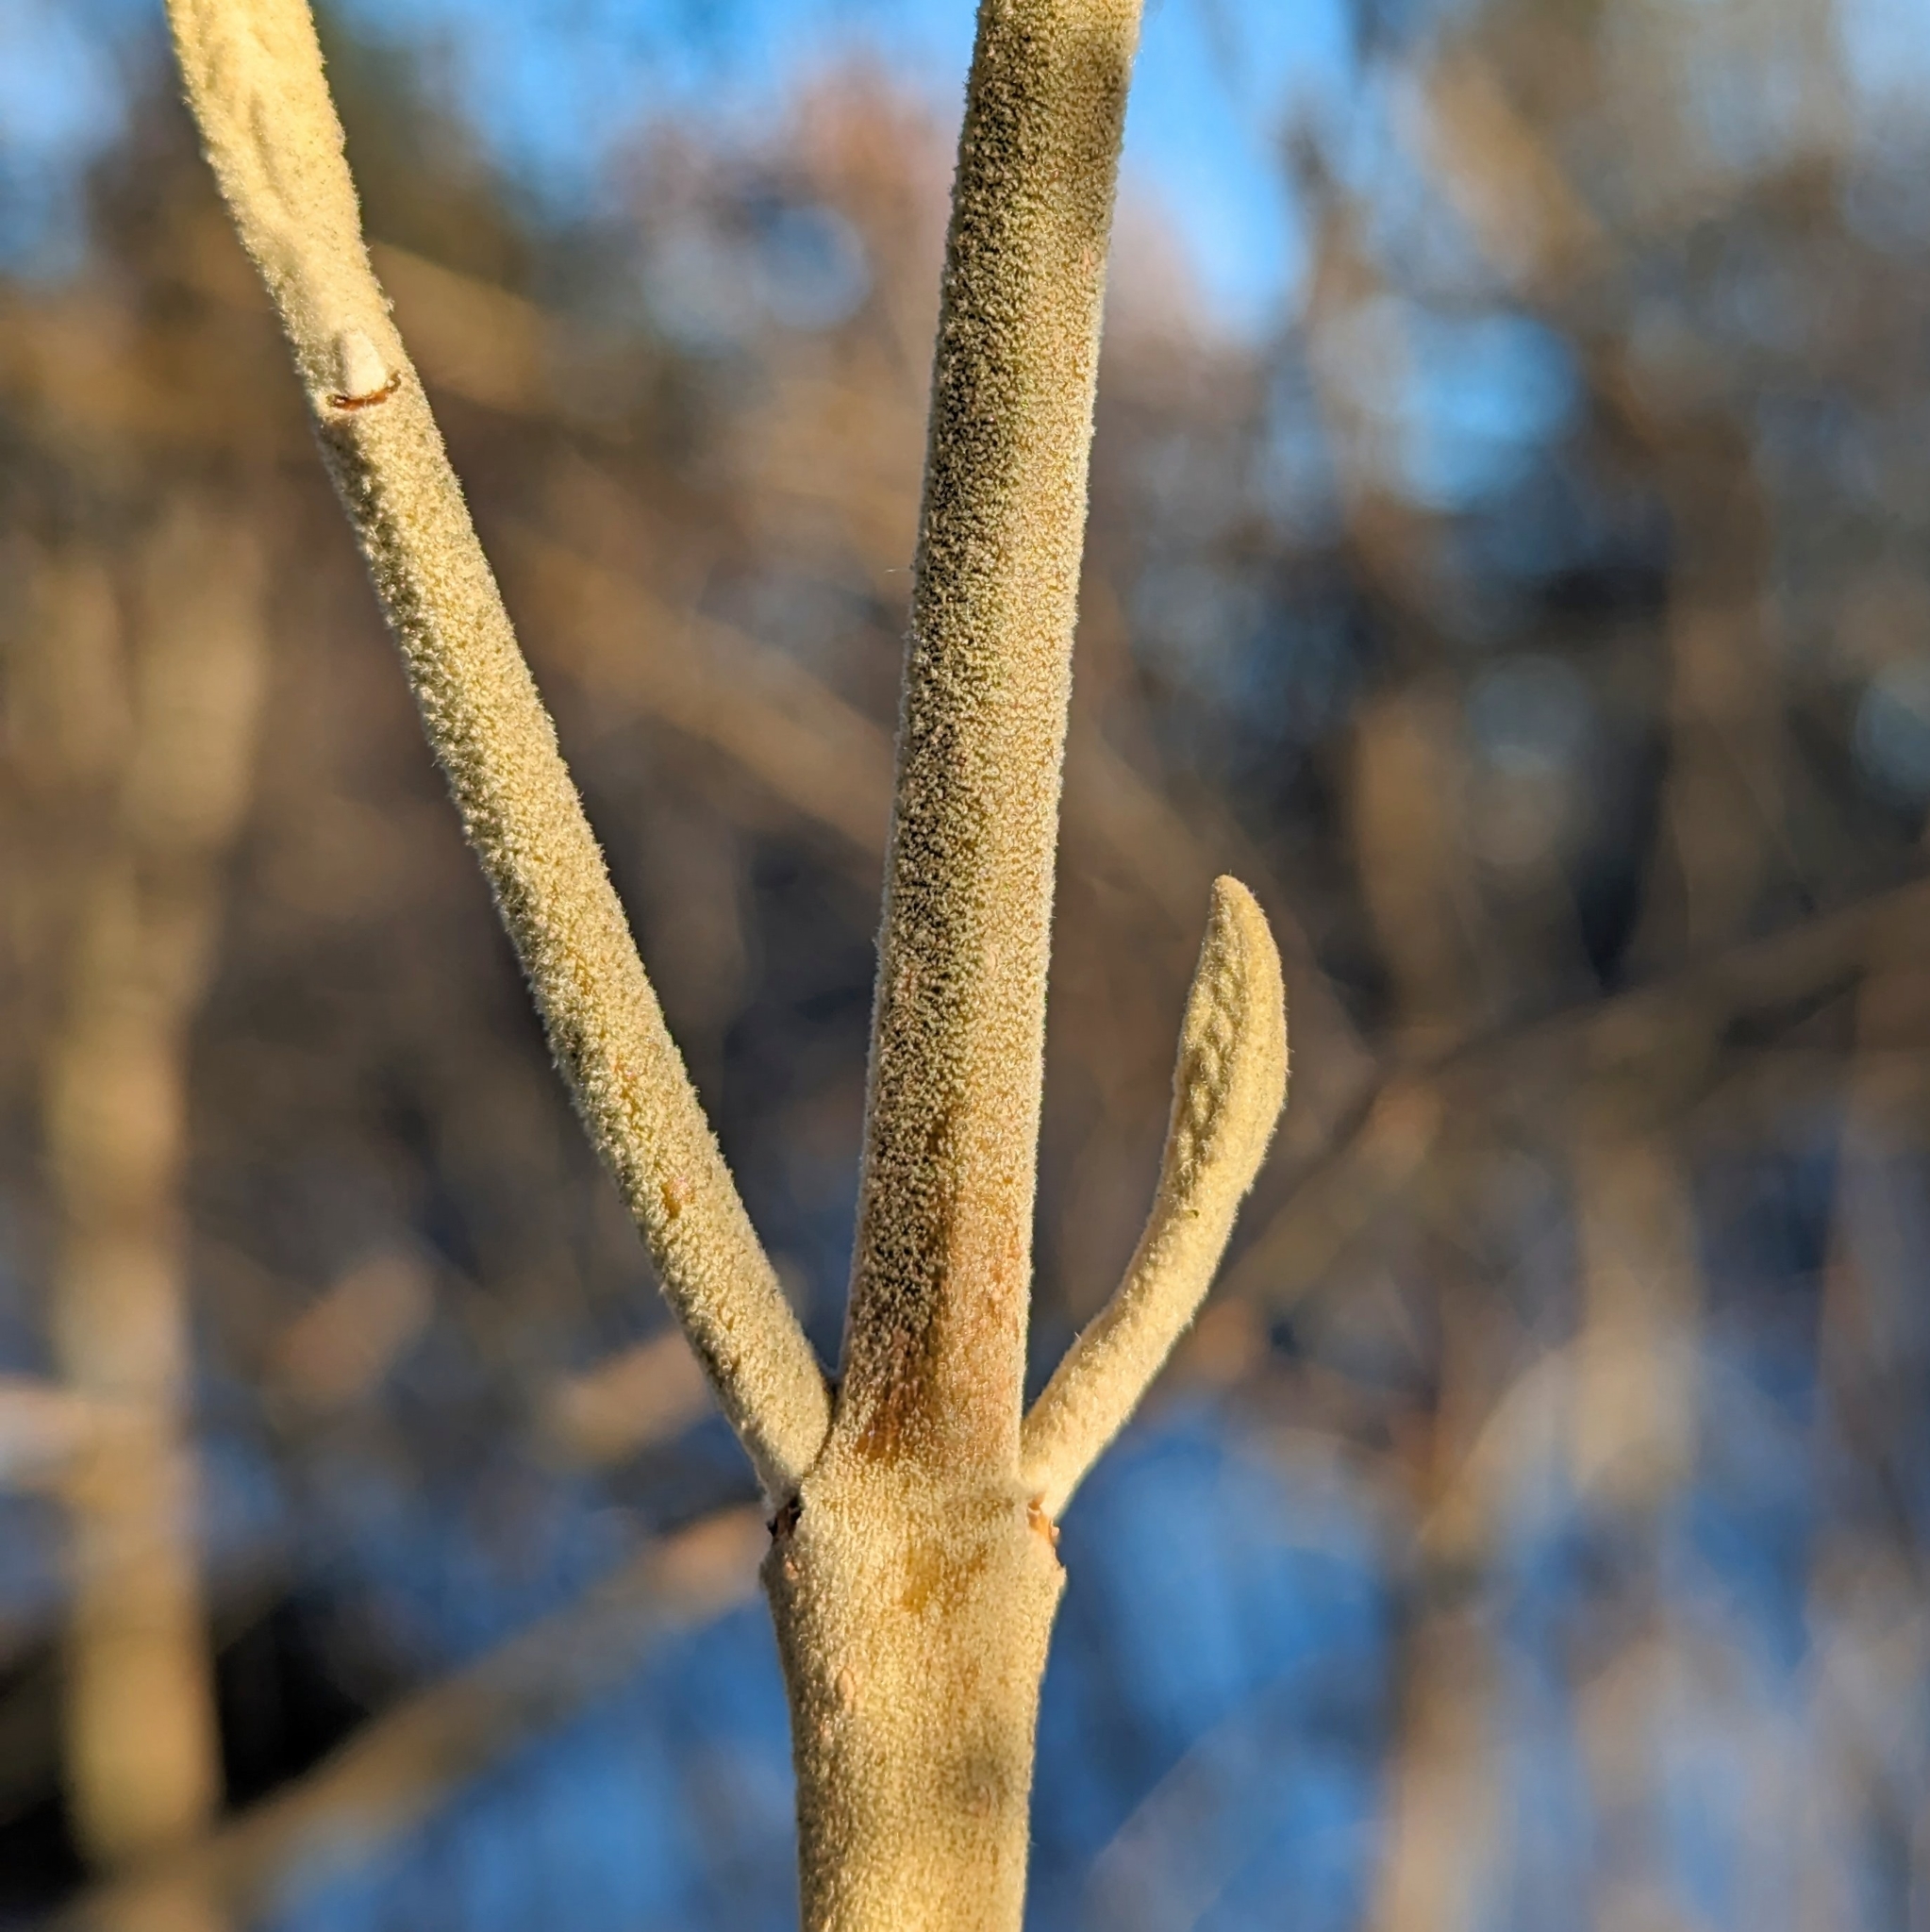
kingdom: Plantae
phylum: Tracheophyta
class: Magnoliopsida
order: Dipsacales
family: Viburnaceae
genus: Viburnum
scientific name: Viburnum lantanoides
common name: Hobblebush
